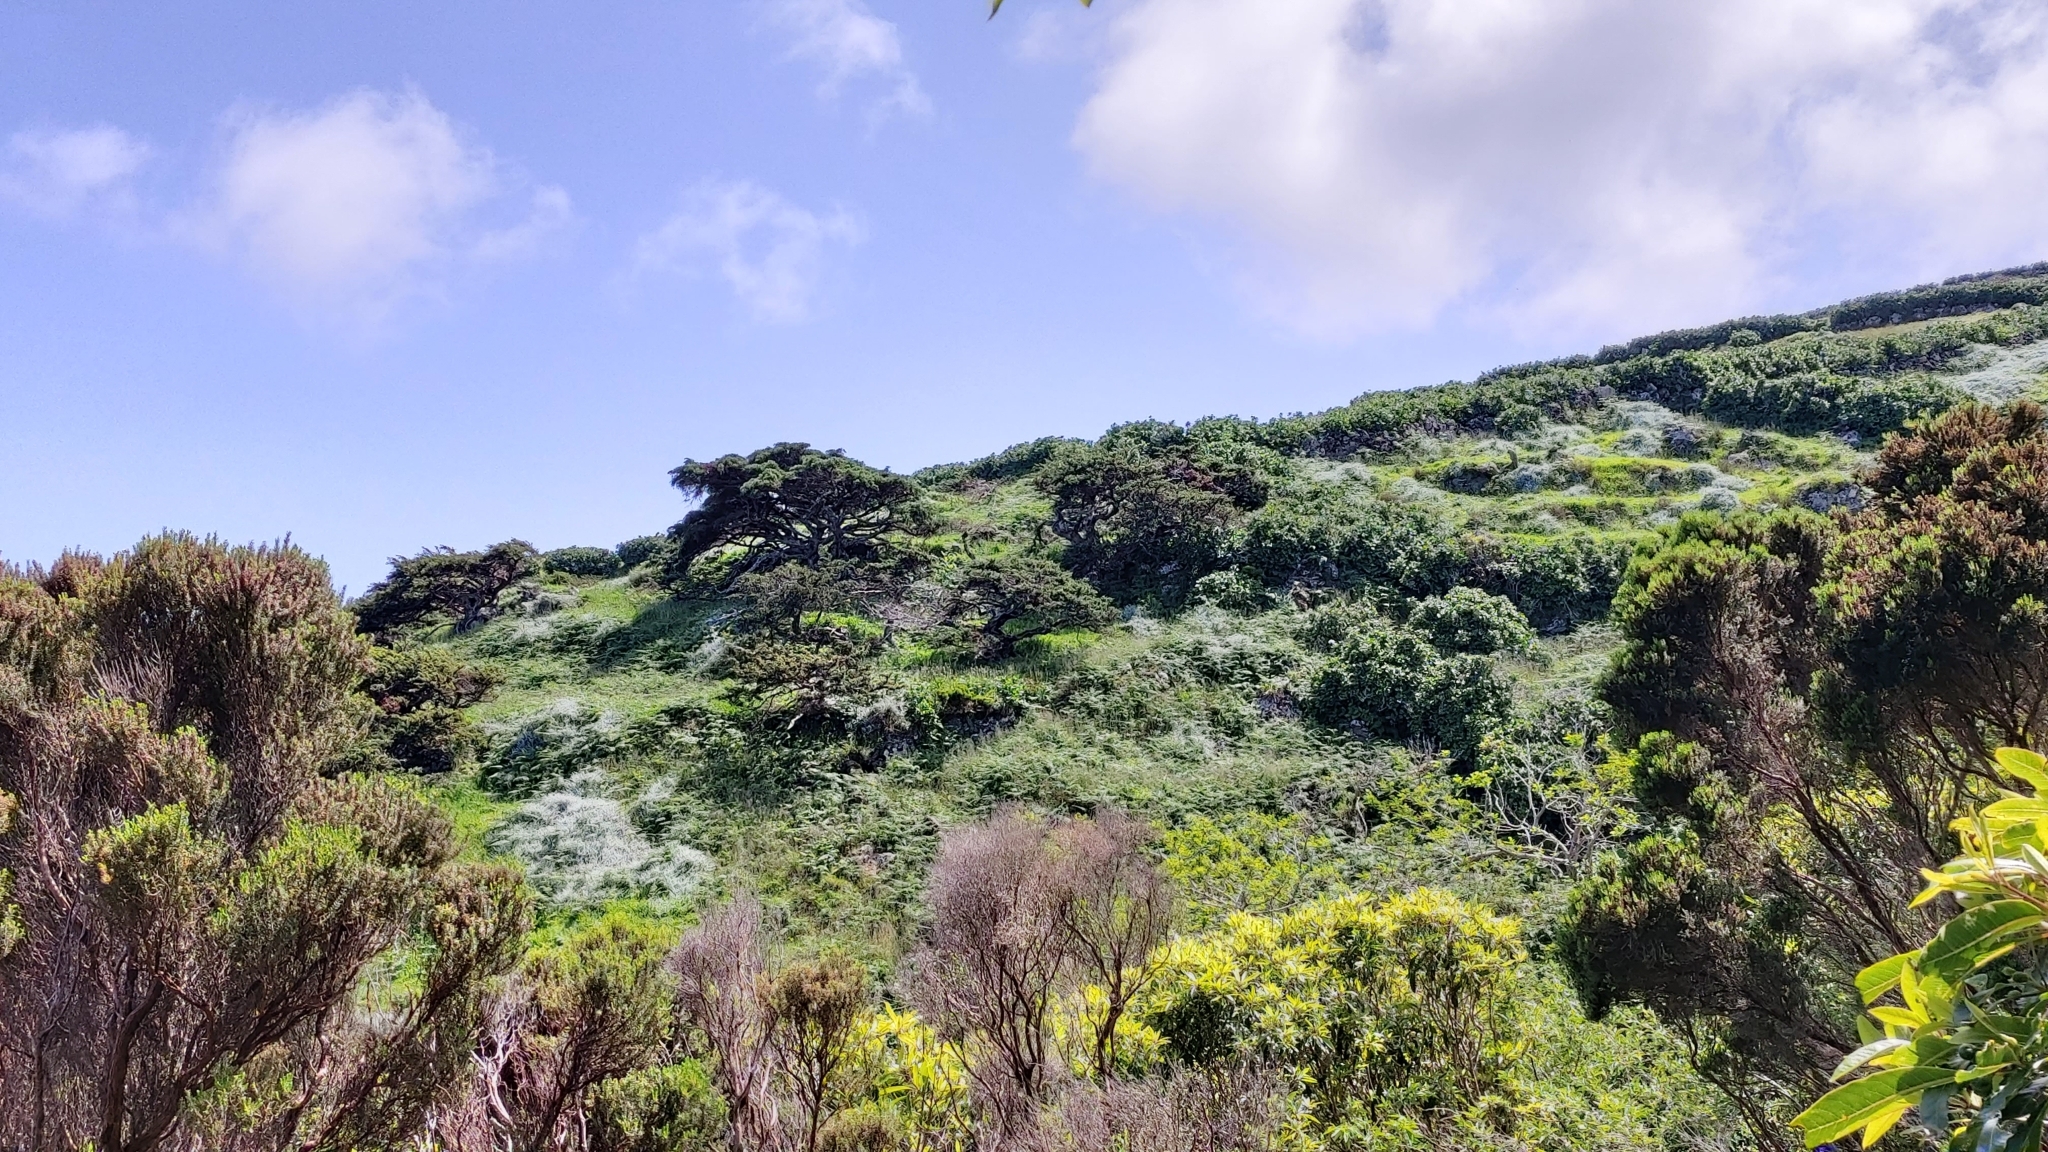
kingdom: Plantae
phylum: Tracheophyta
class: Pinopsida
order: Pinales
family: Cupressaceae
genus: Juniperus
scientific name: Juniperus brevifolia
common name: Azores juniper
